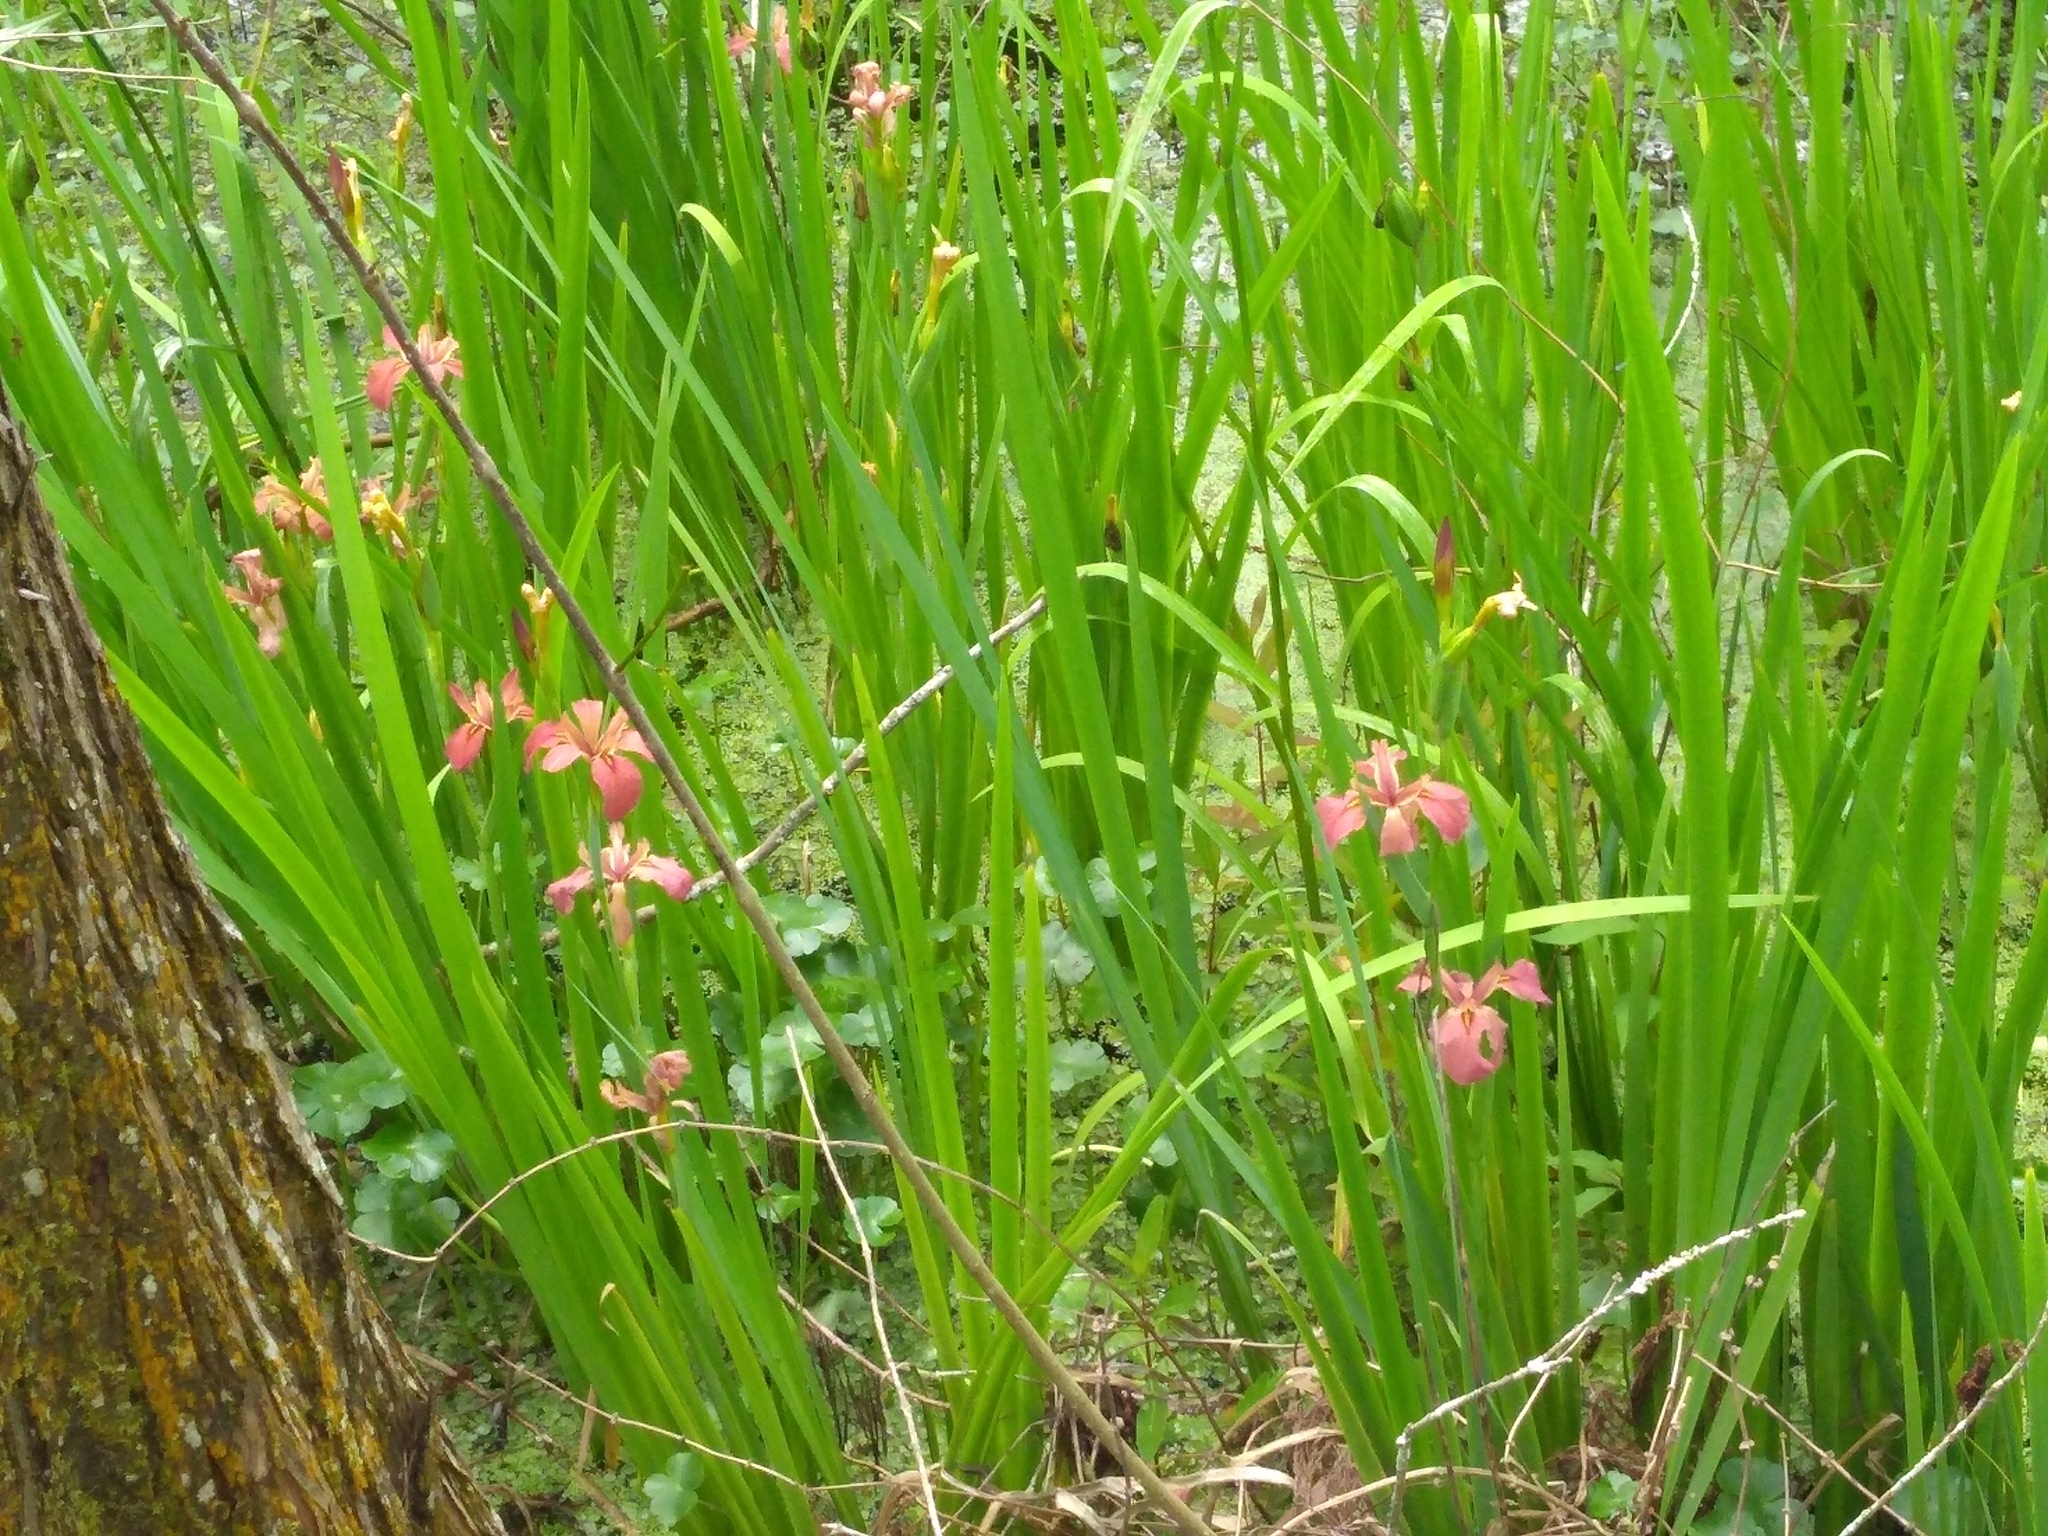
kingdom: Plantae
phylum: Tracheophyta
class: Liliopsida
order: Asparagales
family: Iridaceae
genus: Iris
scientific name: Iris fulva
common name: Copper iris
